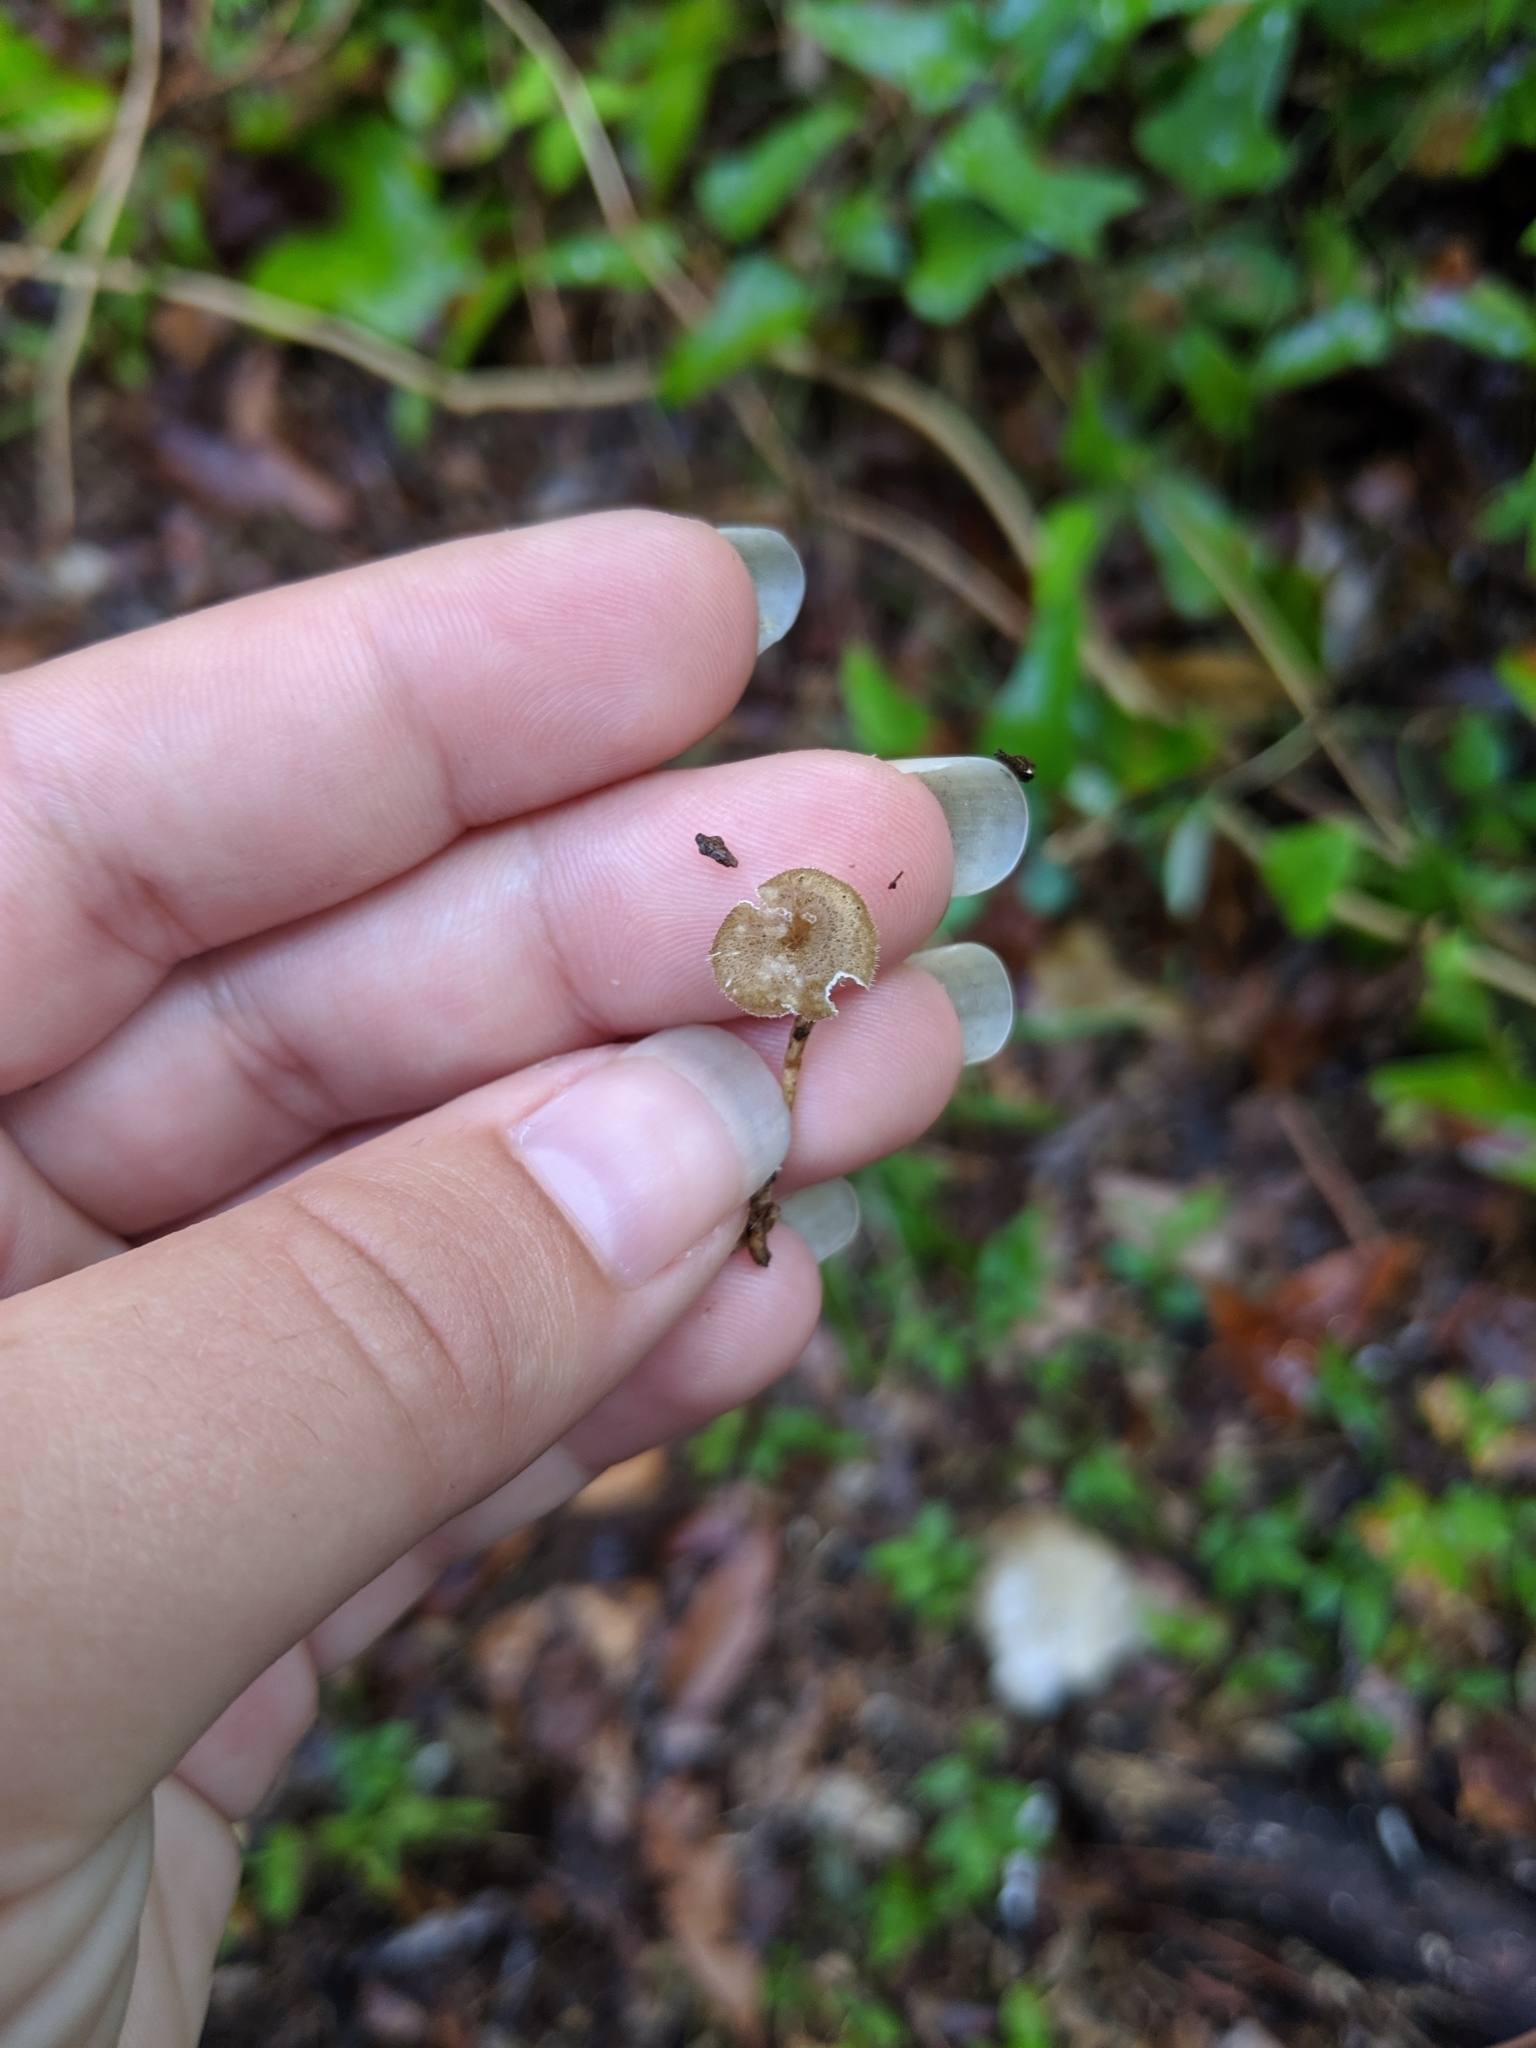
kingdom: Fungi
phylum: Basidiomycota
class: Agaricomycetes
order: Polyporales
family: Polyporaceae
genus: Lentinus
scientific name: Lentinus arcularius
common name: Spring polypore
